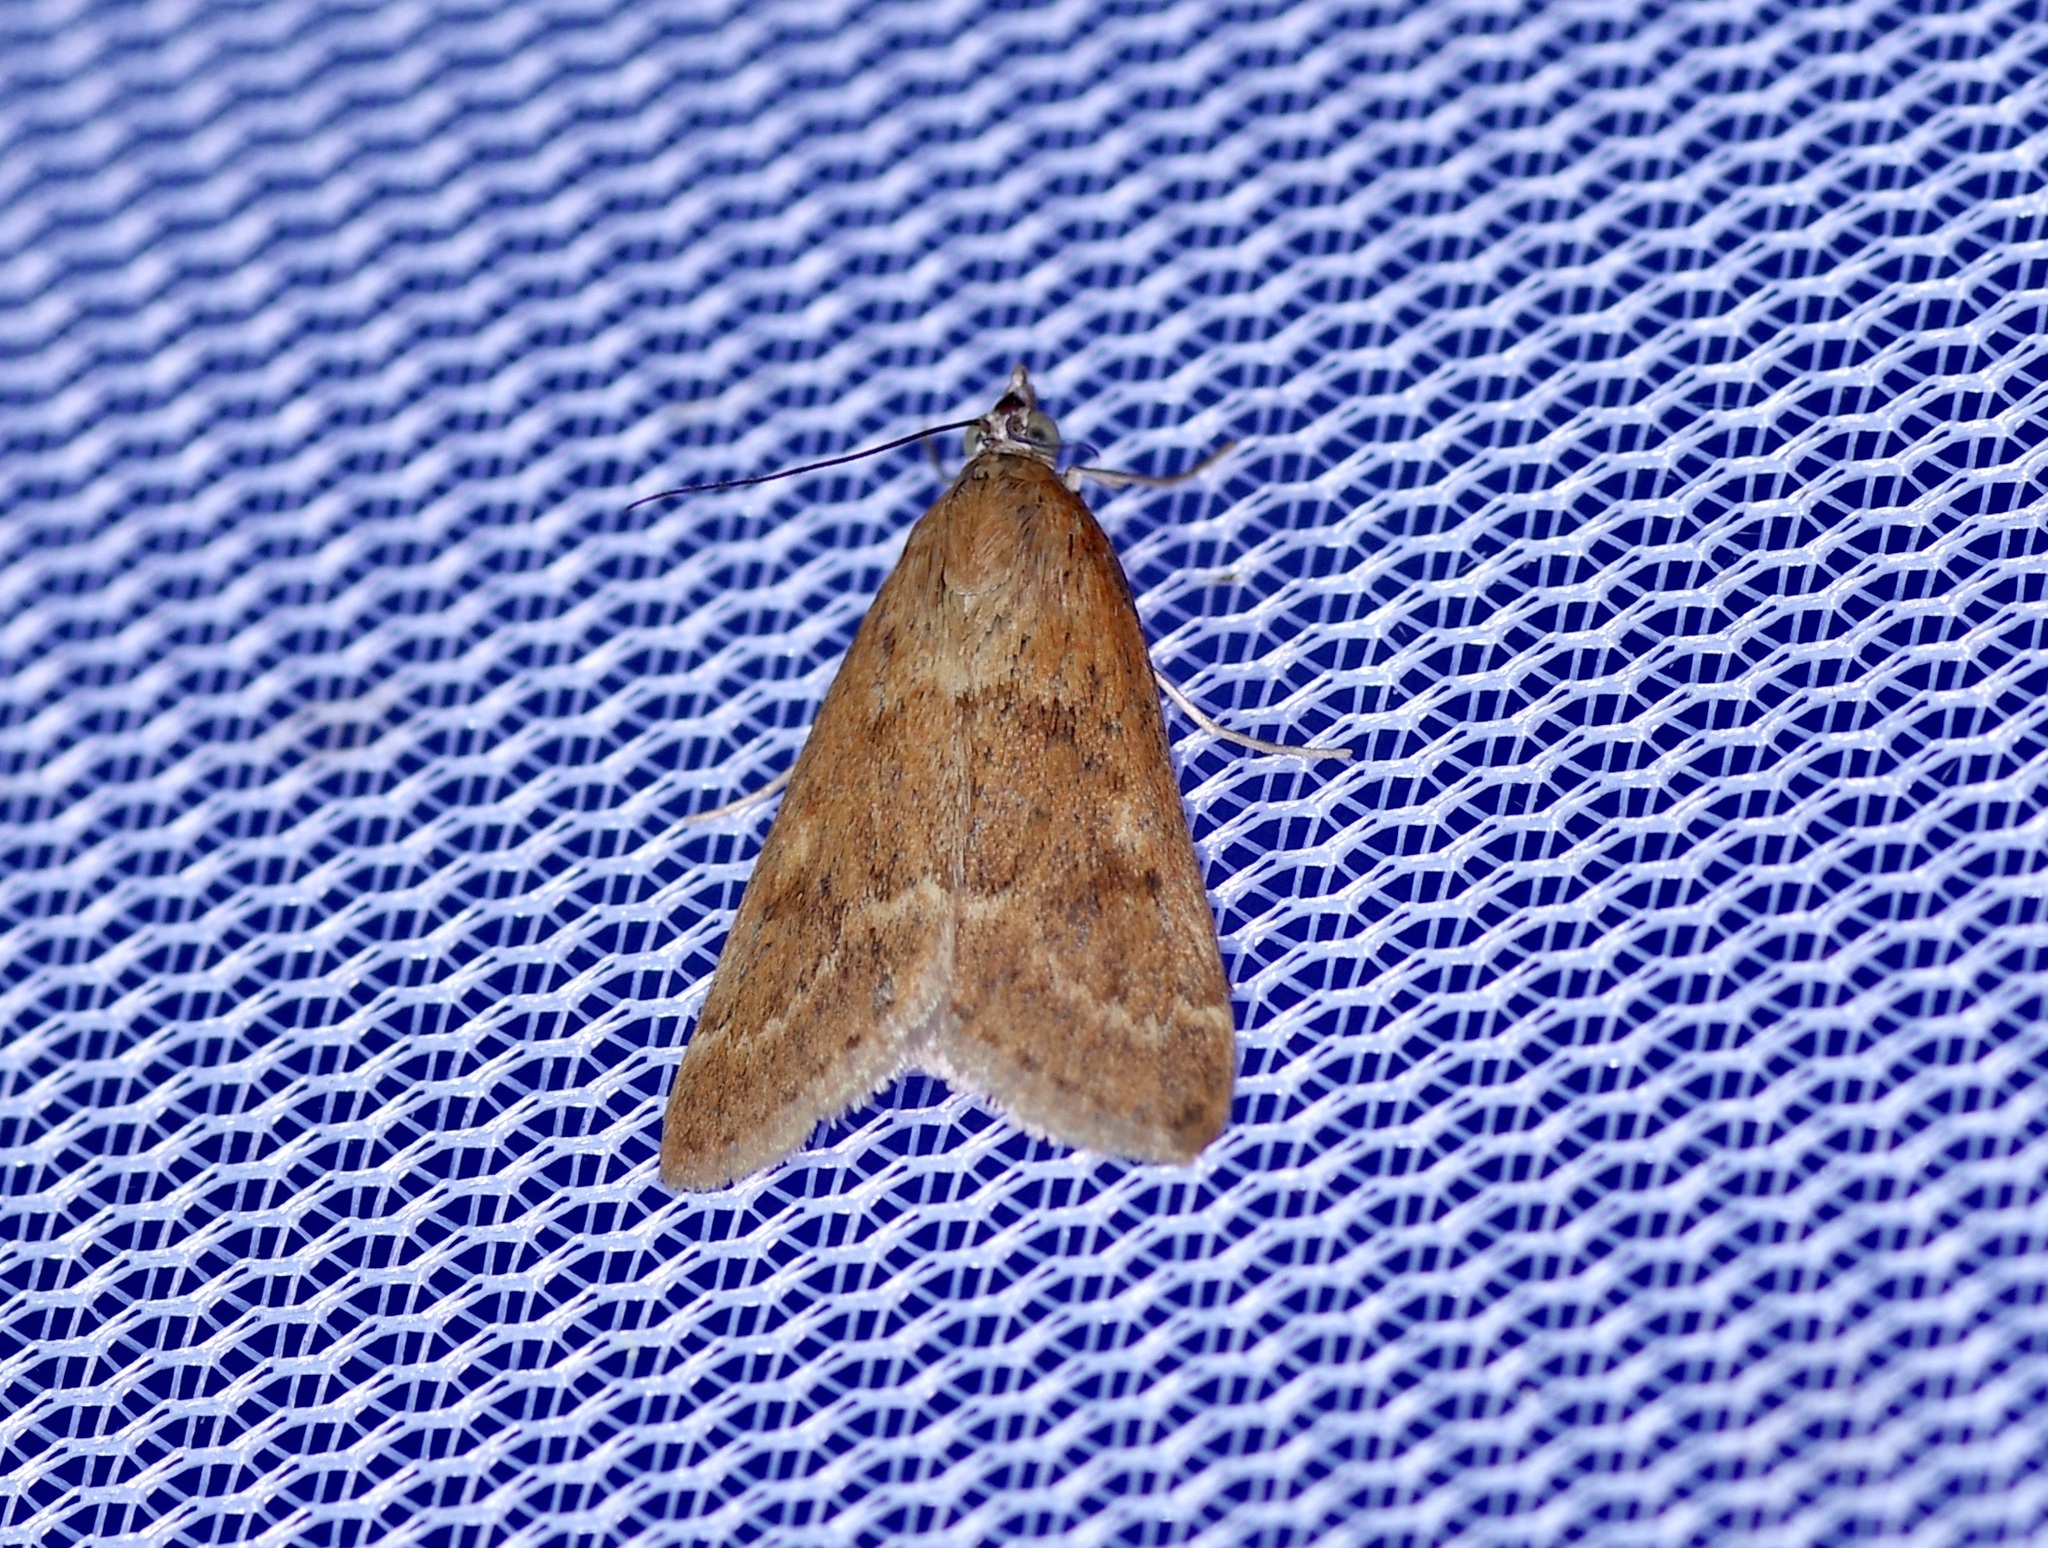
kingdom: Animalia
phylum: Arthropoda
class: Insecta
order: Lepidoptera
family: Crambidae
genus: Achyra
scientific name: Achyra rantalis
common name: Garden webworm
